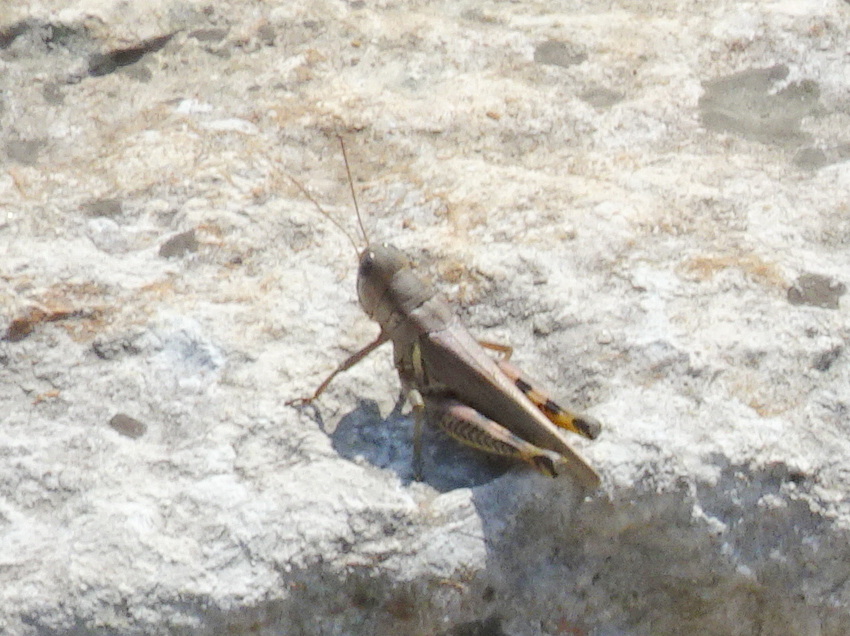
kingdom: Animalia
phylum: Arthropoda
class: Insecta
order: Orthoptera
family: Acrididae
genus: Melanoplus
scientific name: Melanoplus differentialis
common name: Differential grasshopper
